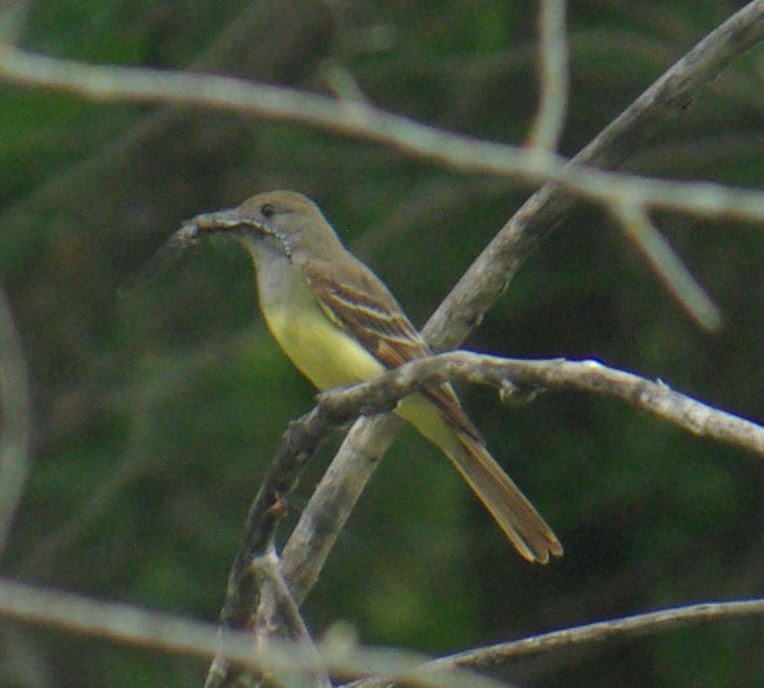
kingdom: Animalia
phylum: Chordata
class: Aves
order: Passeriformes
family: Tyrannidae
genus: Myiarchus
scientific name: Myiarchus crinitus
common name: Great crested flycatcher
